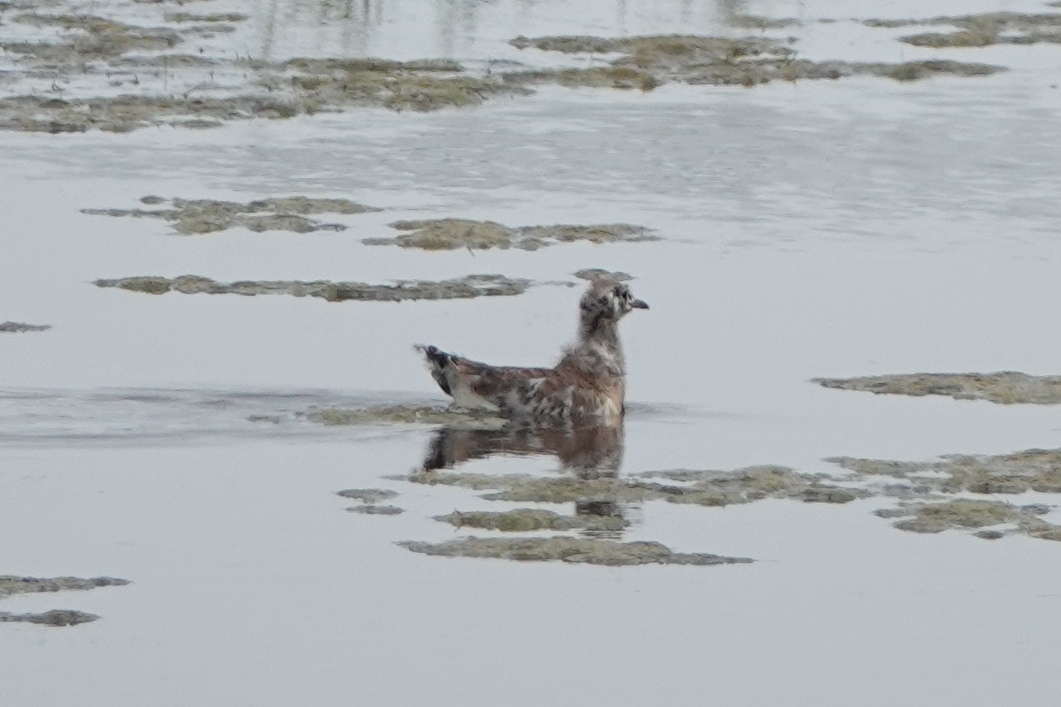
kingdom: Animalia
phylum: Chordata
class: Aves
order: Charadriiformes
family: Laridae
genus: Chroicocephalus
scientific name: Chroicocephalus ridibundus
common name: Black-headed gull
